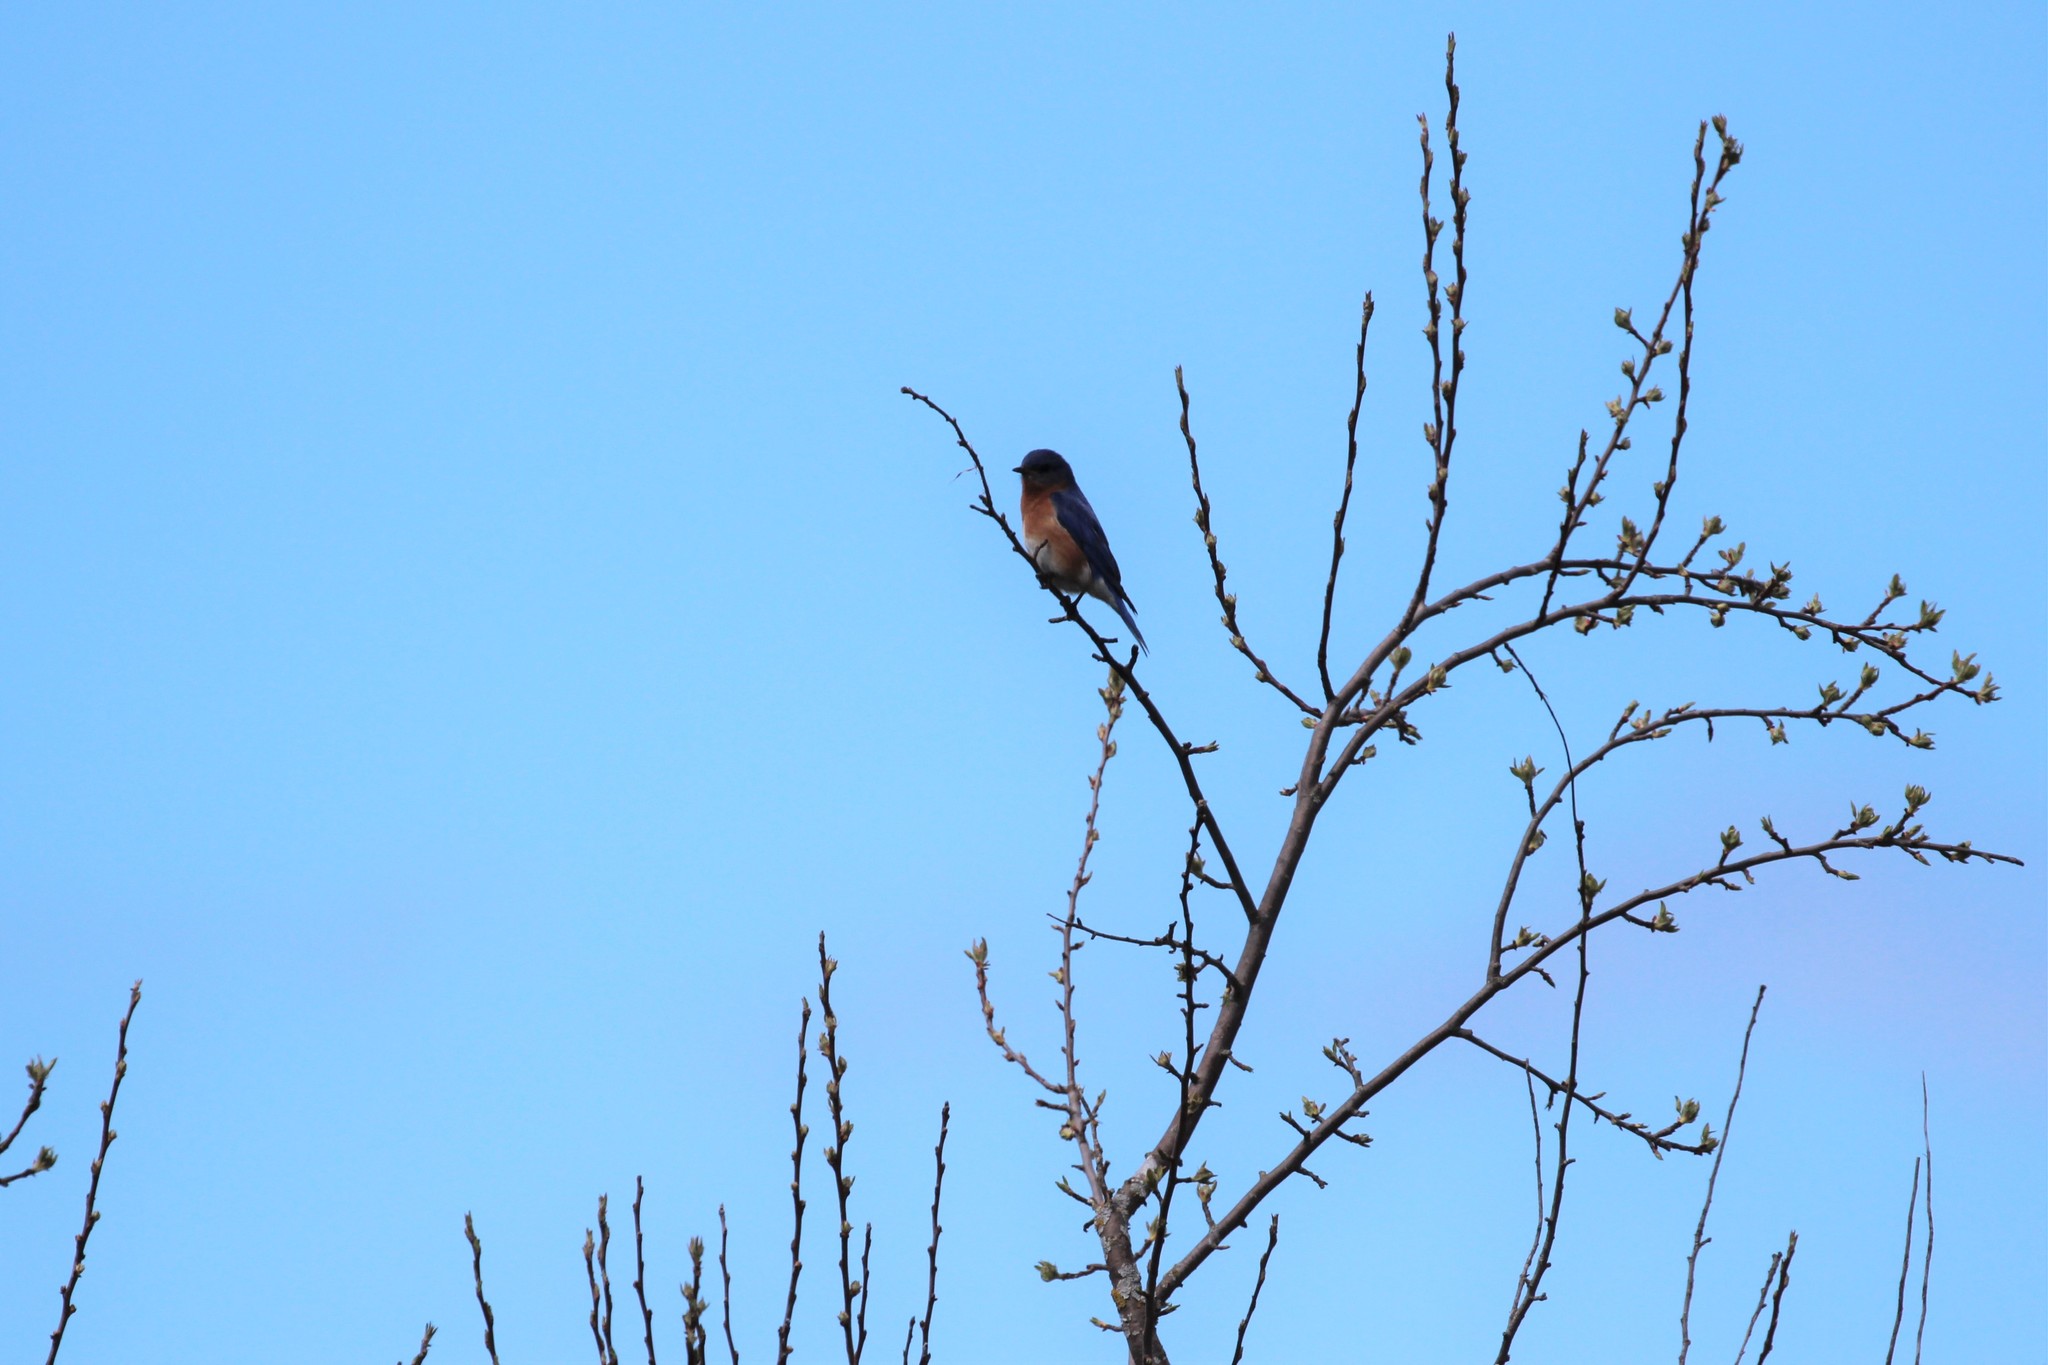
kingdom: Animalia
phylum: Chordata
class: Aves
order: Passeriformes
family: Turdidae
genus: Sialia
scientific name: Sialia sialis
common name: Eastern bluebird
